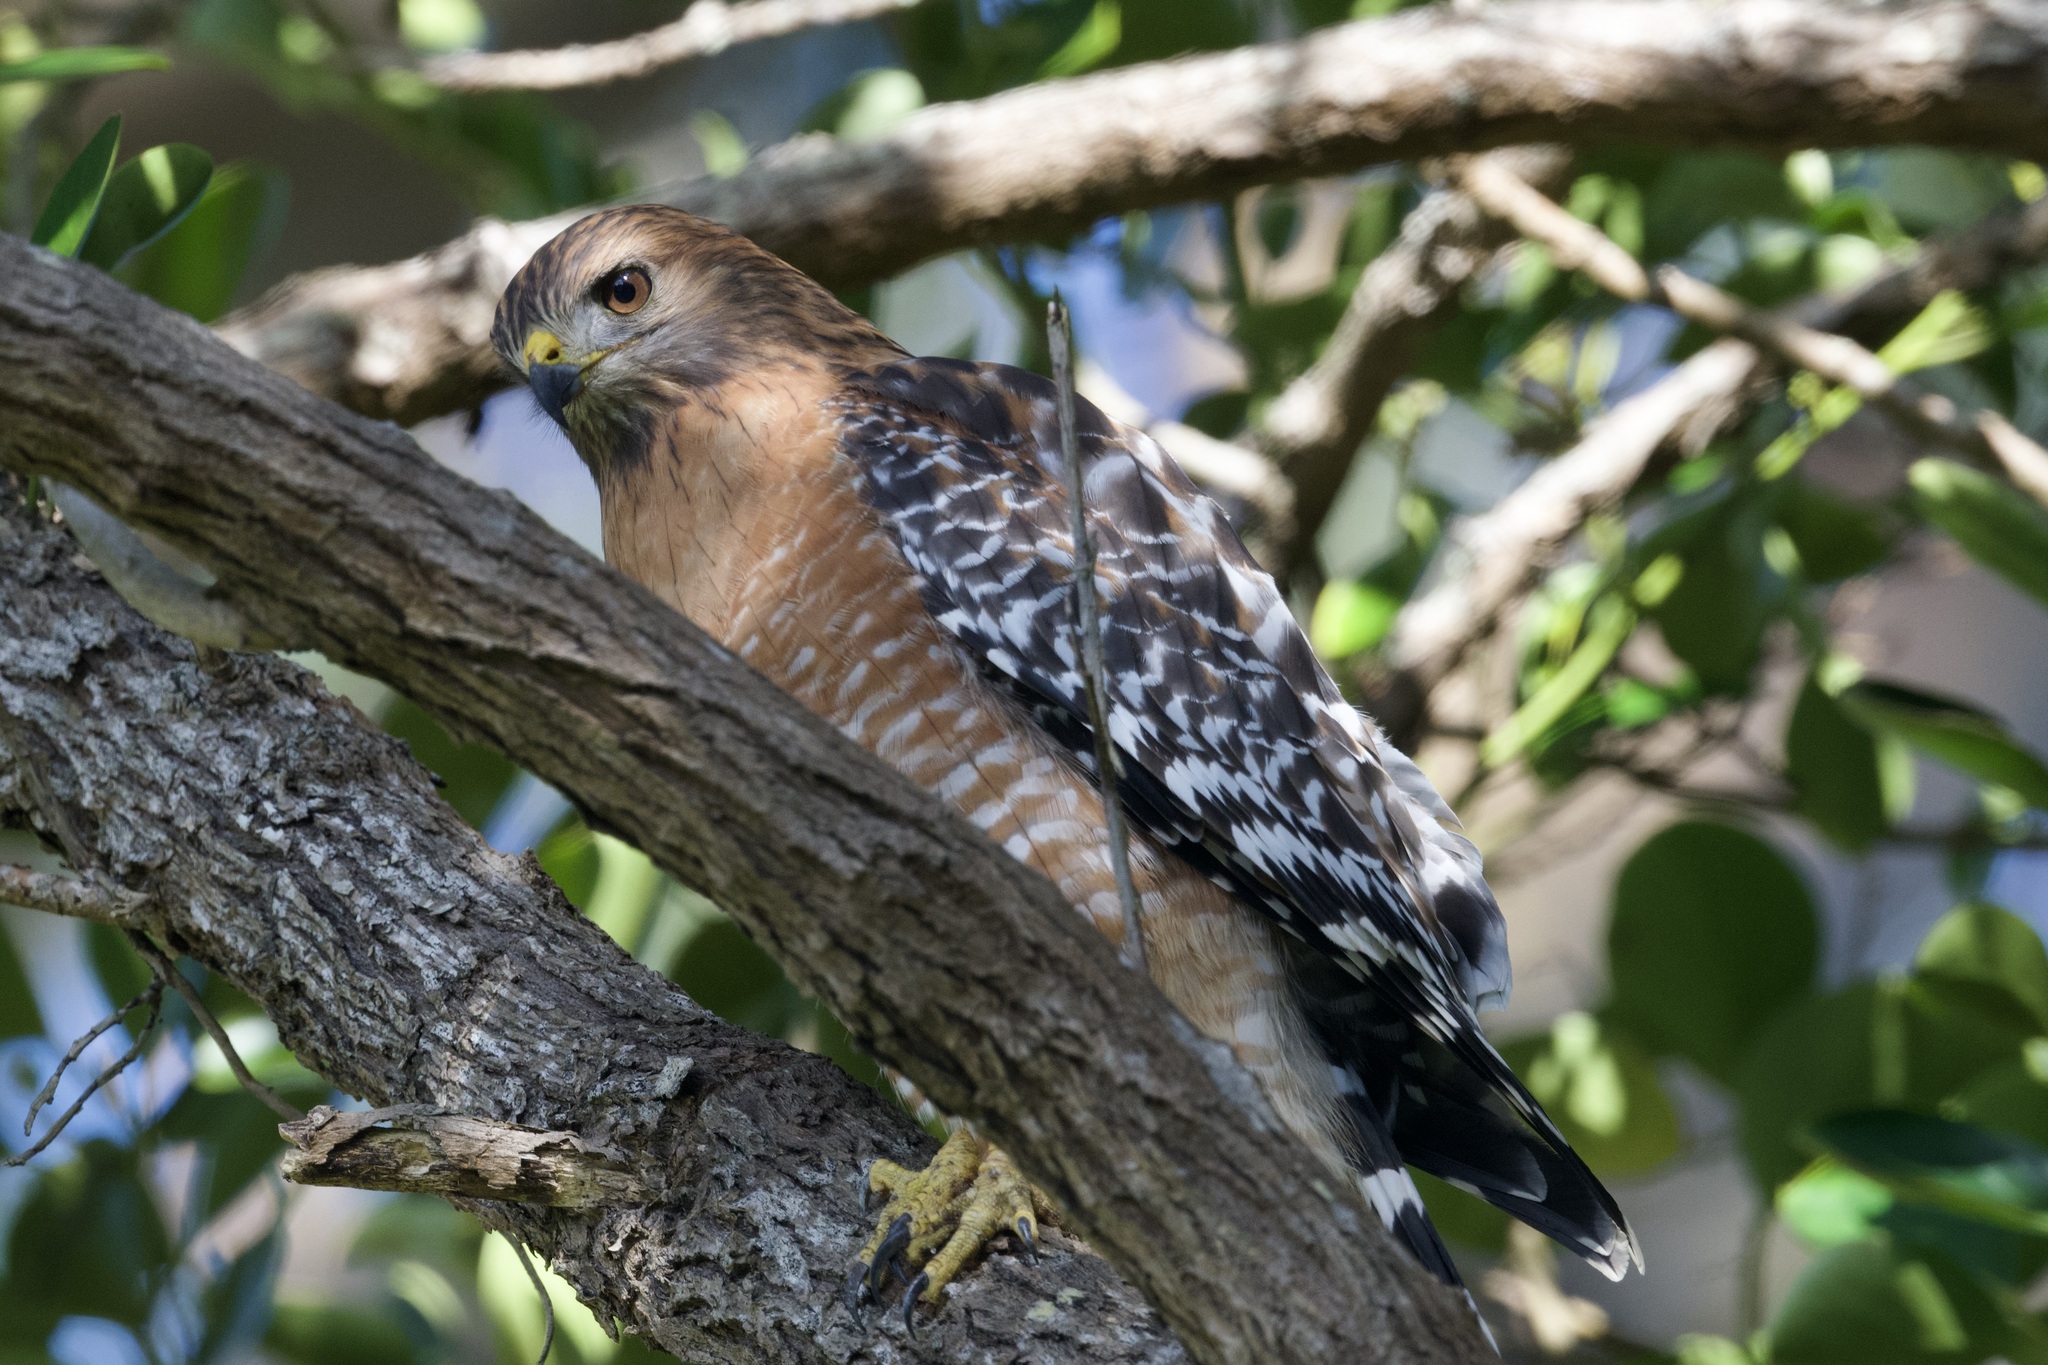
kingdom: Animalia
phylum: Chordata
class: Aves
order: Accipitriformes
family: Accipitridae
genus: Buteo
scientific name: Buteo lineatus
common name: Red-shouldered hawk
